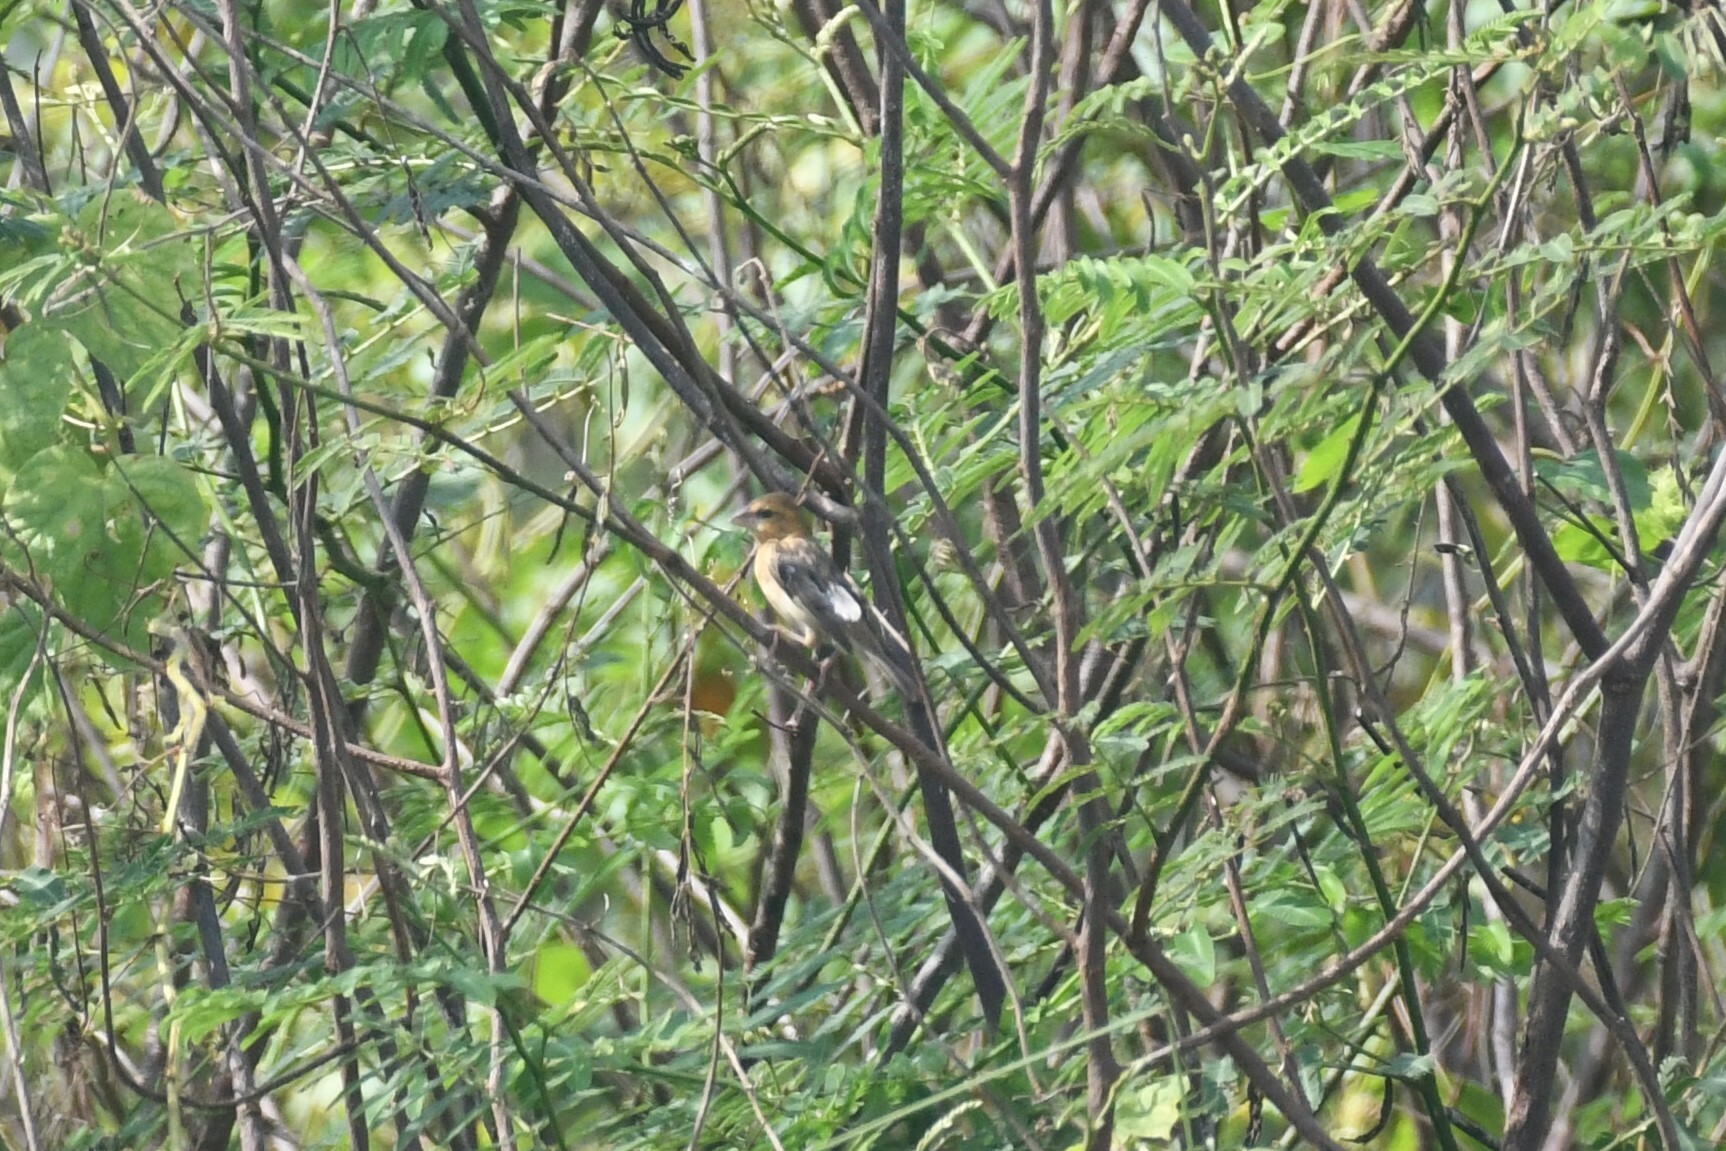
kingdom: Animalia
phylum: Chordata
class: Aves
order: Passeriformes
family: Ploceidae
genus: Ploceus
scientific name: Ploceus hypoxanthus
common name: Asian golden weaver
